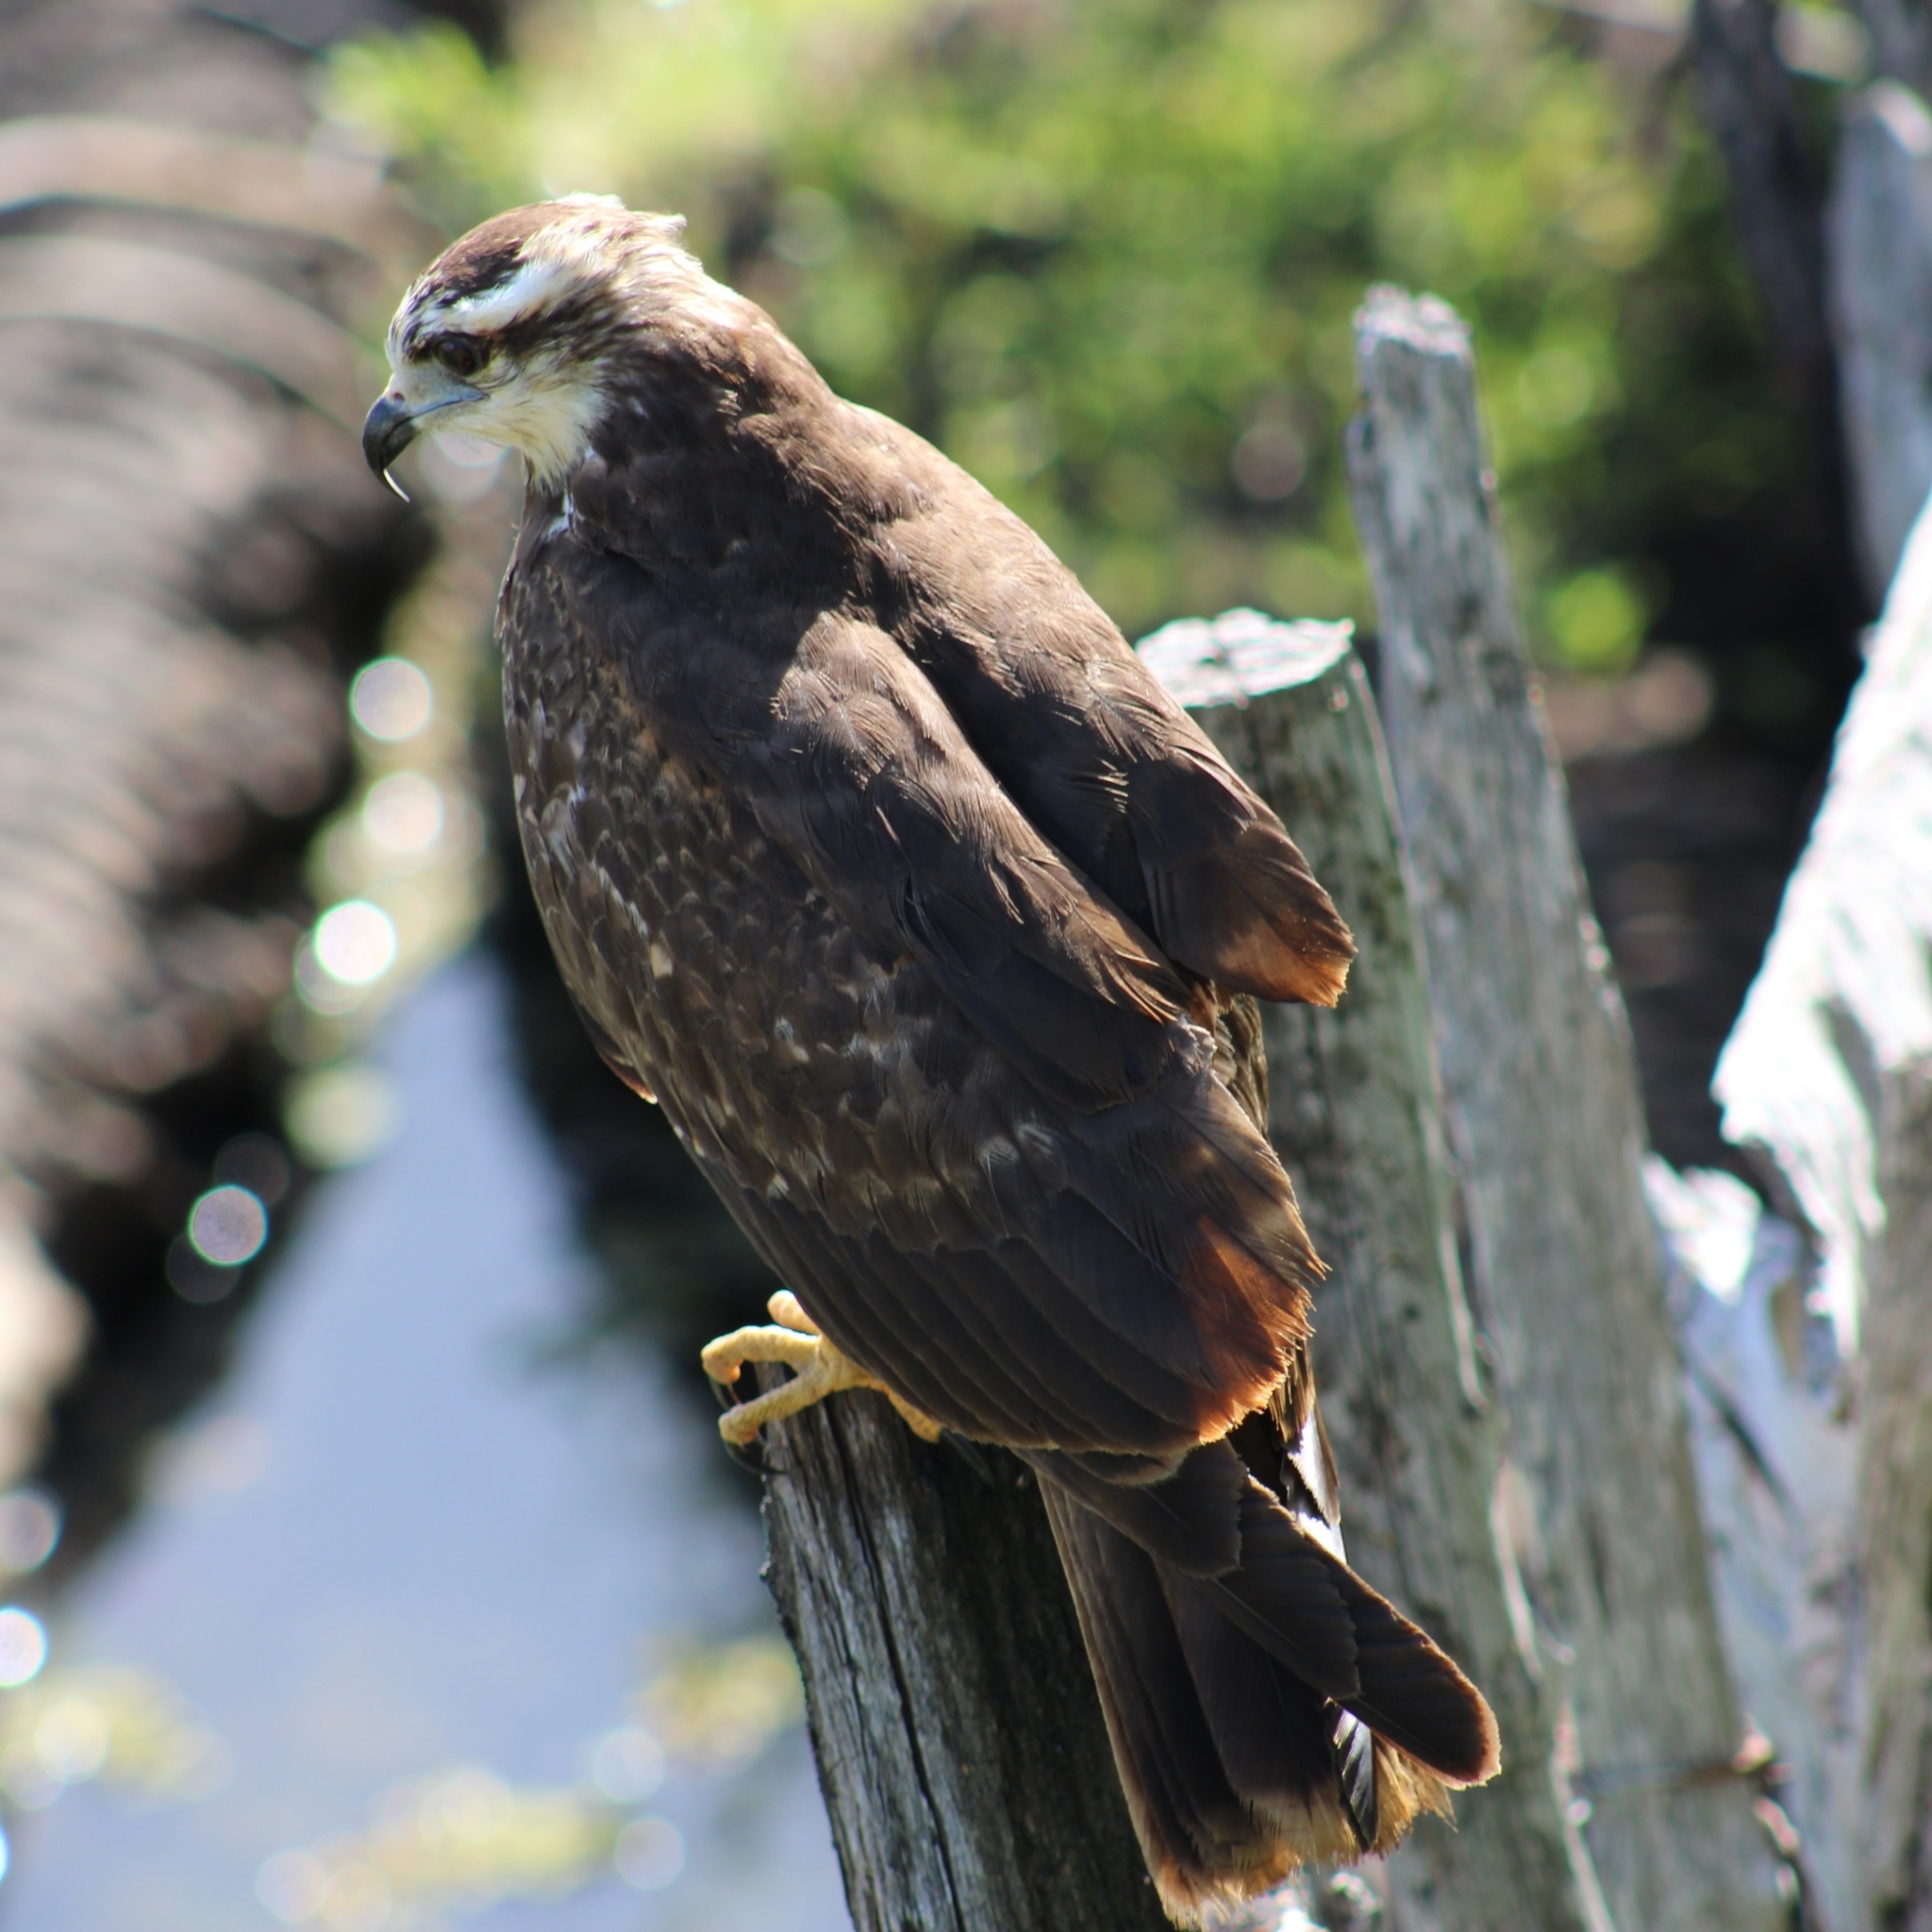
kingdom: Animalia
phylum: Chordata
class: Aves
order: Accipitriformes
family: Accipitridae
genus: Rostrhamus
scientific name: Rostrhamus sociabilis
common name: Snail kite
